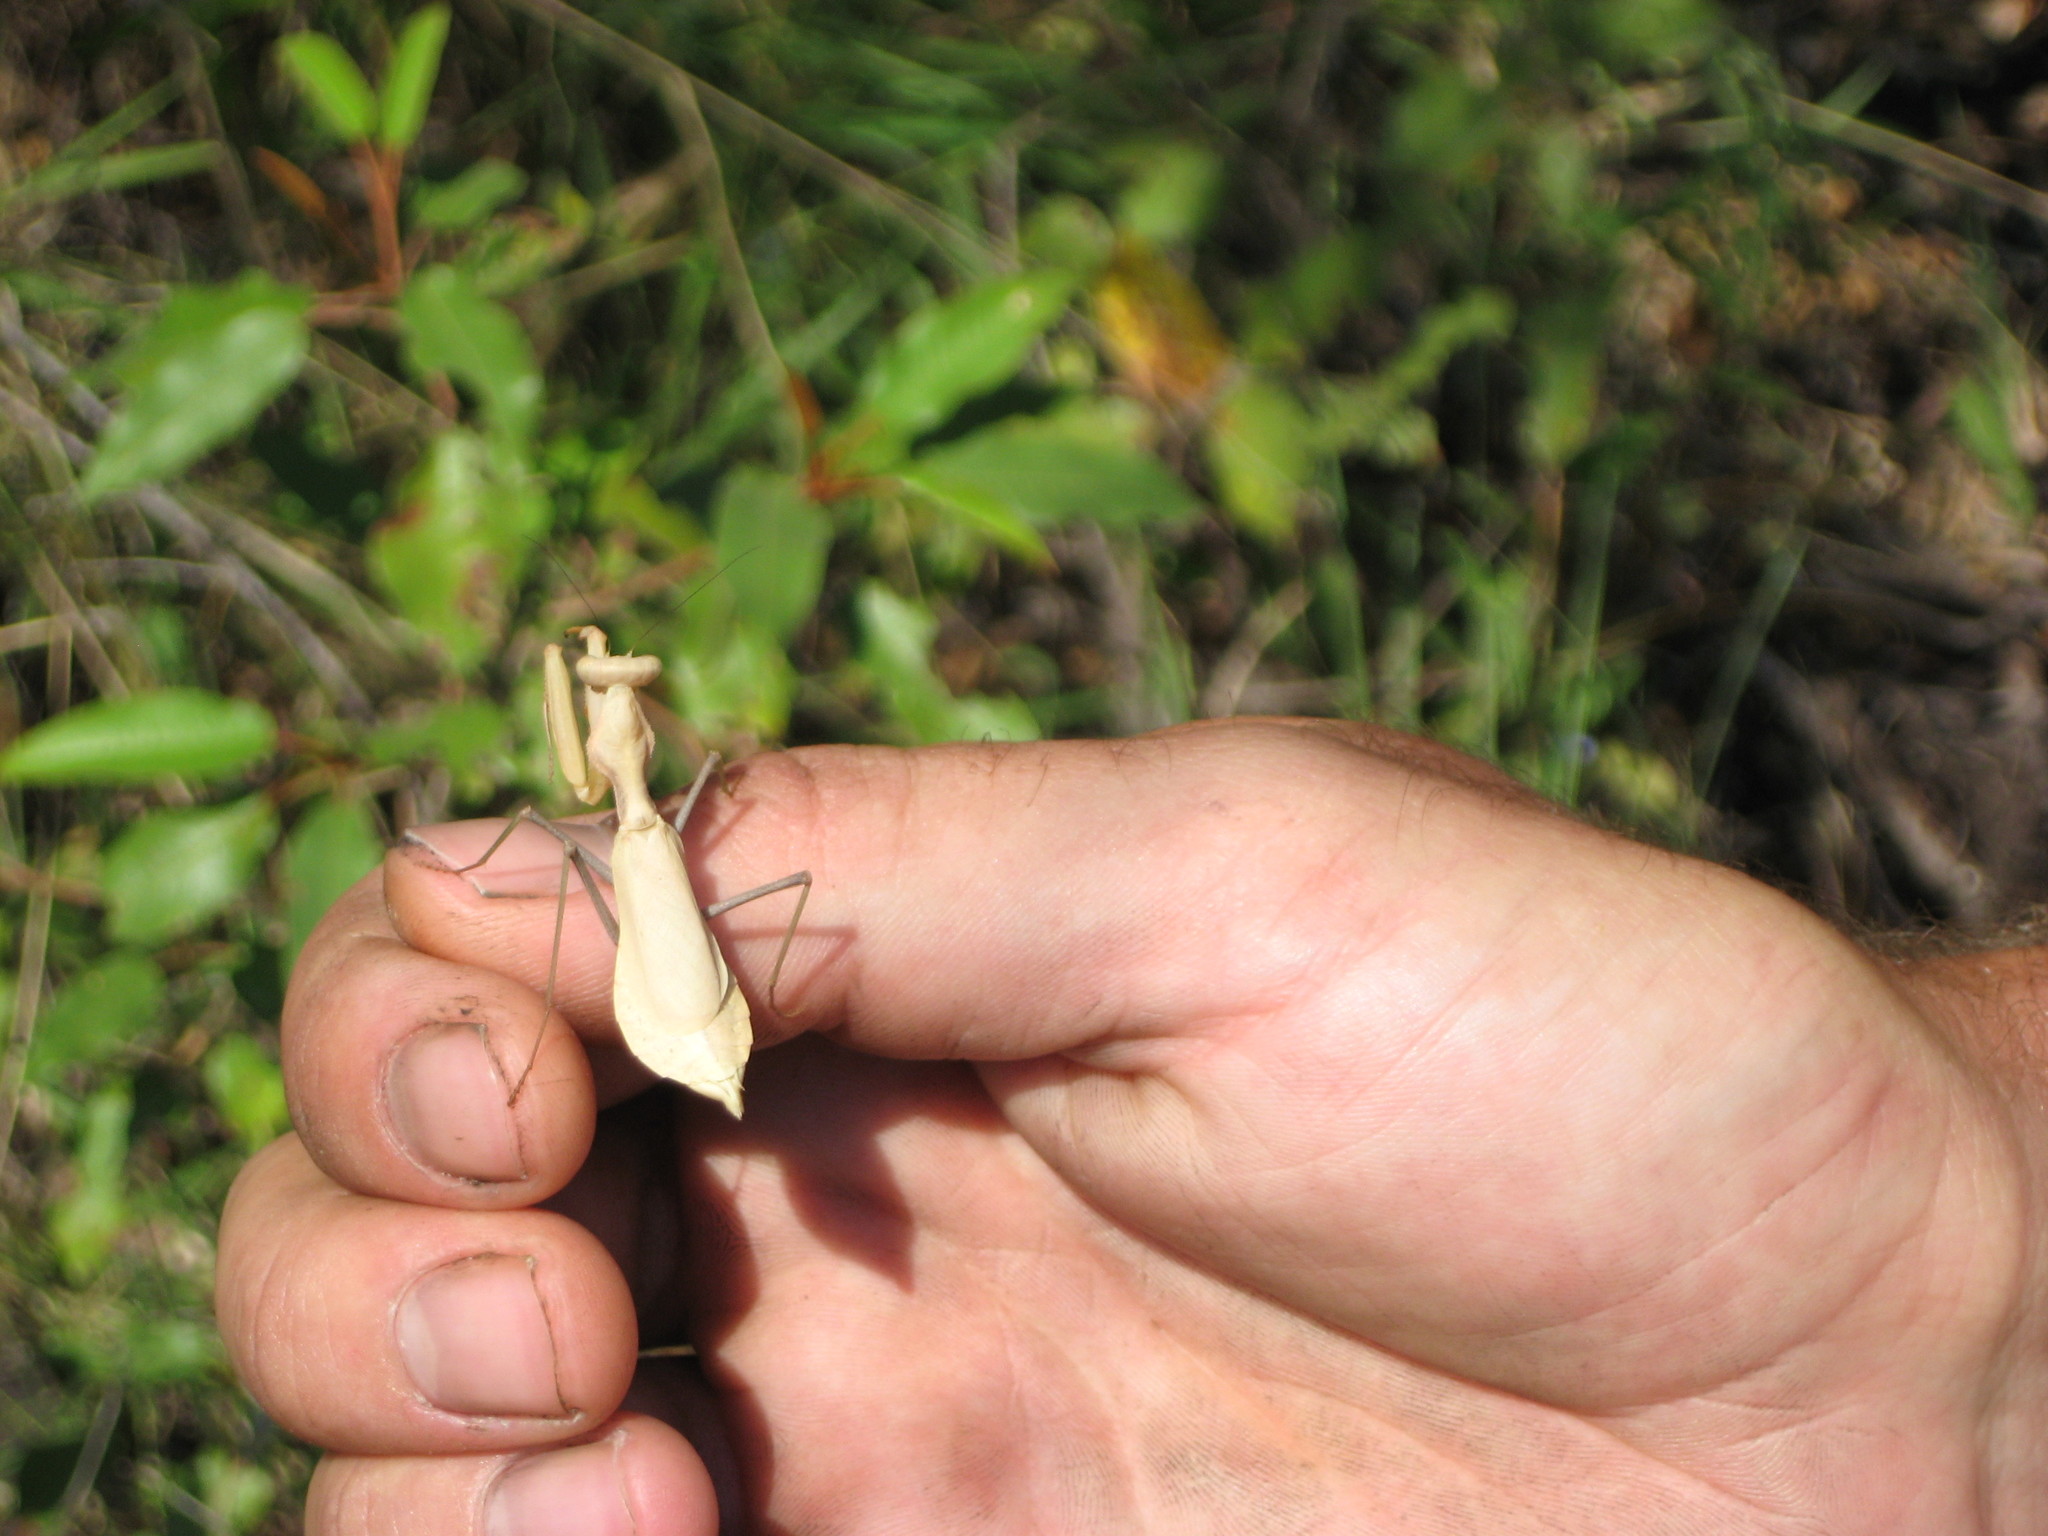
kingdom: Animalia
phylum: Arthropoda
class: Insecta
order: Mantodea
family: Chroicopteridae
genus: Dystacta
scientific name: Dystacta alticeps
